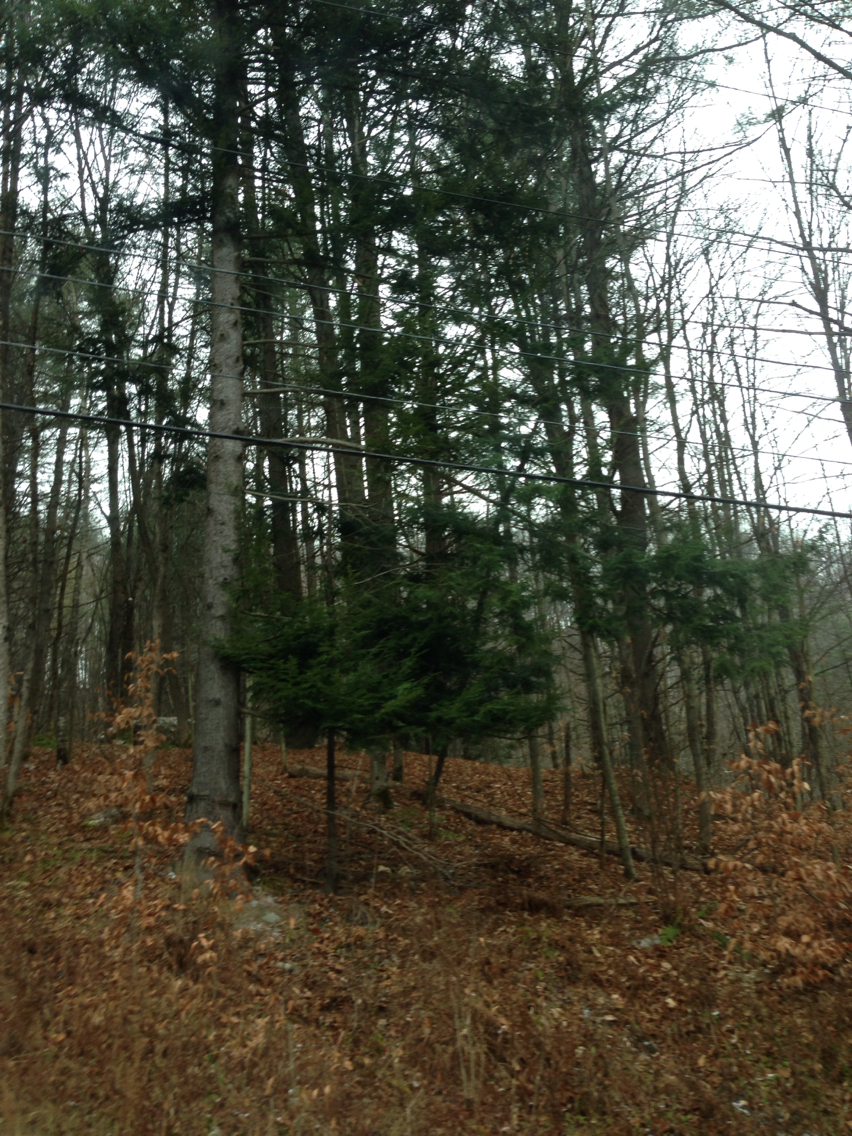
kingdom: Plantae
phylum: Tracheophyta
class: Pinopsida
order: Pinales
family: Pinaceae
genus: Tsuga
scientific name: Tsuga canadensis
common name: Eastern hemlock
